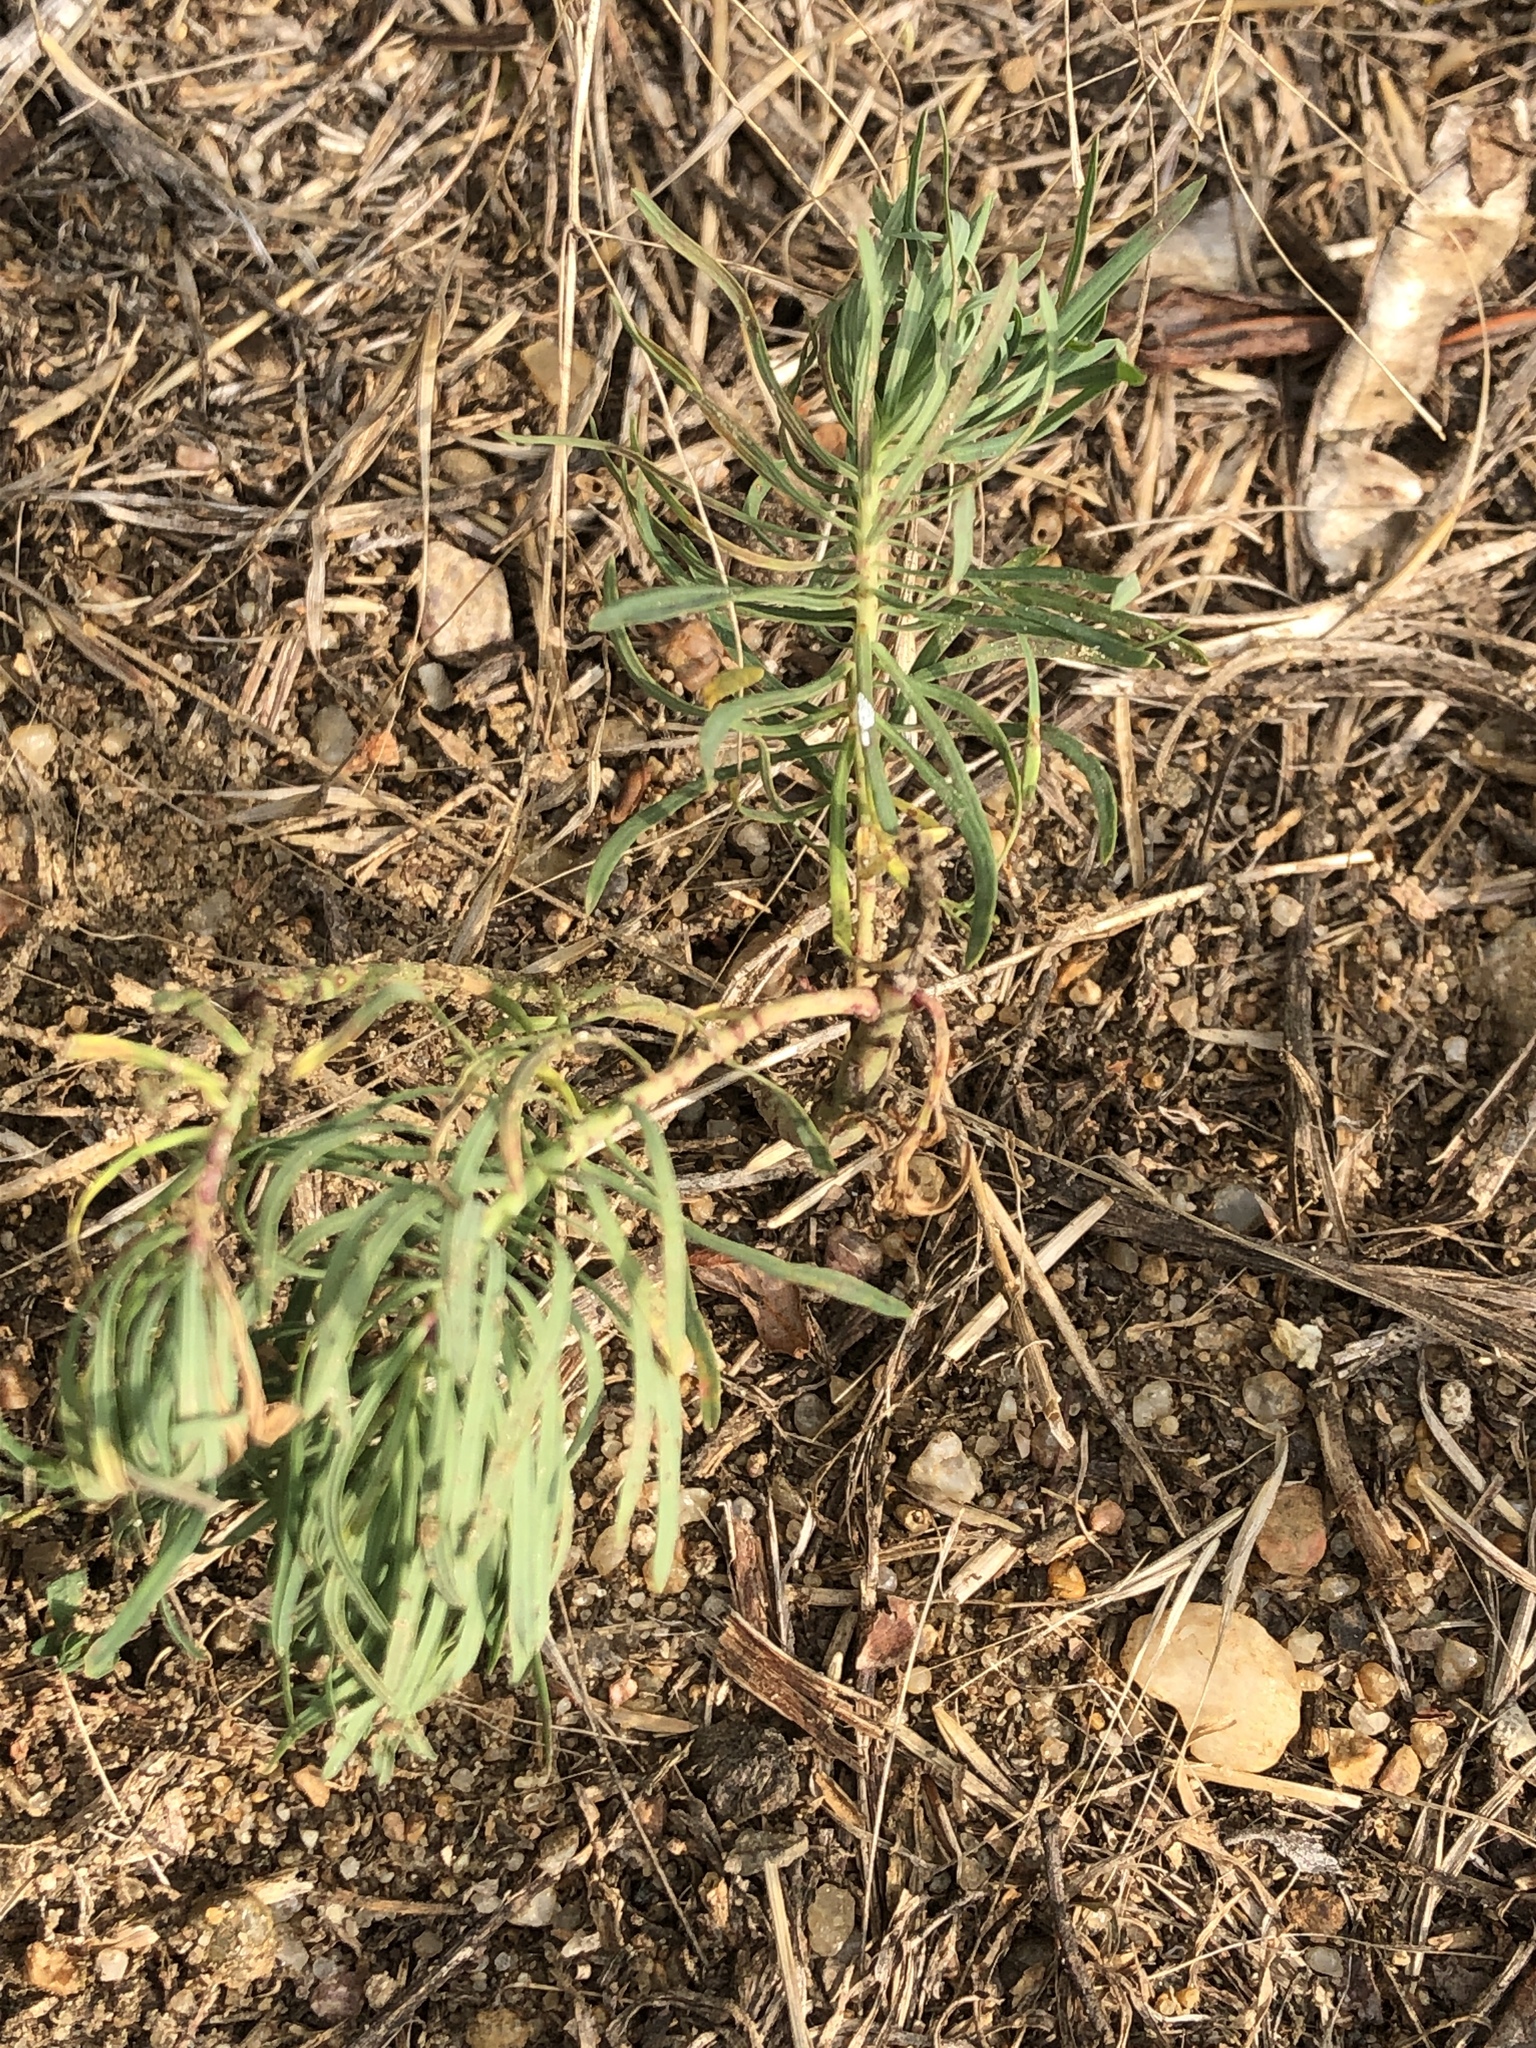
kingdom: Plantae
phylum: Tracheophyta
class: Magnoliopsida
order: Malpighiales
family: Euphorbiaceae
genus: Euphorbia
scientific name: Euphorbia cyparissias
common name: Cypress spurge
